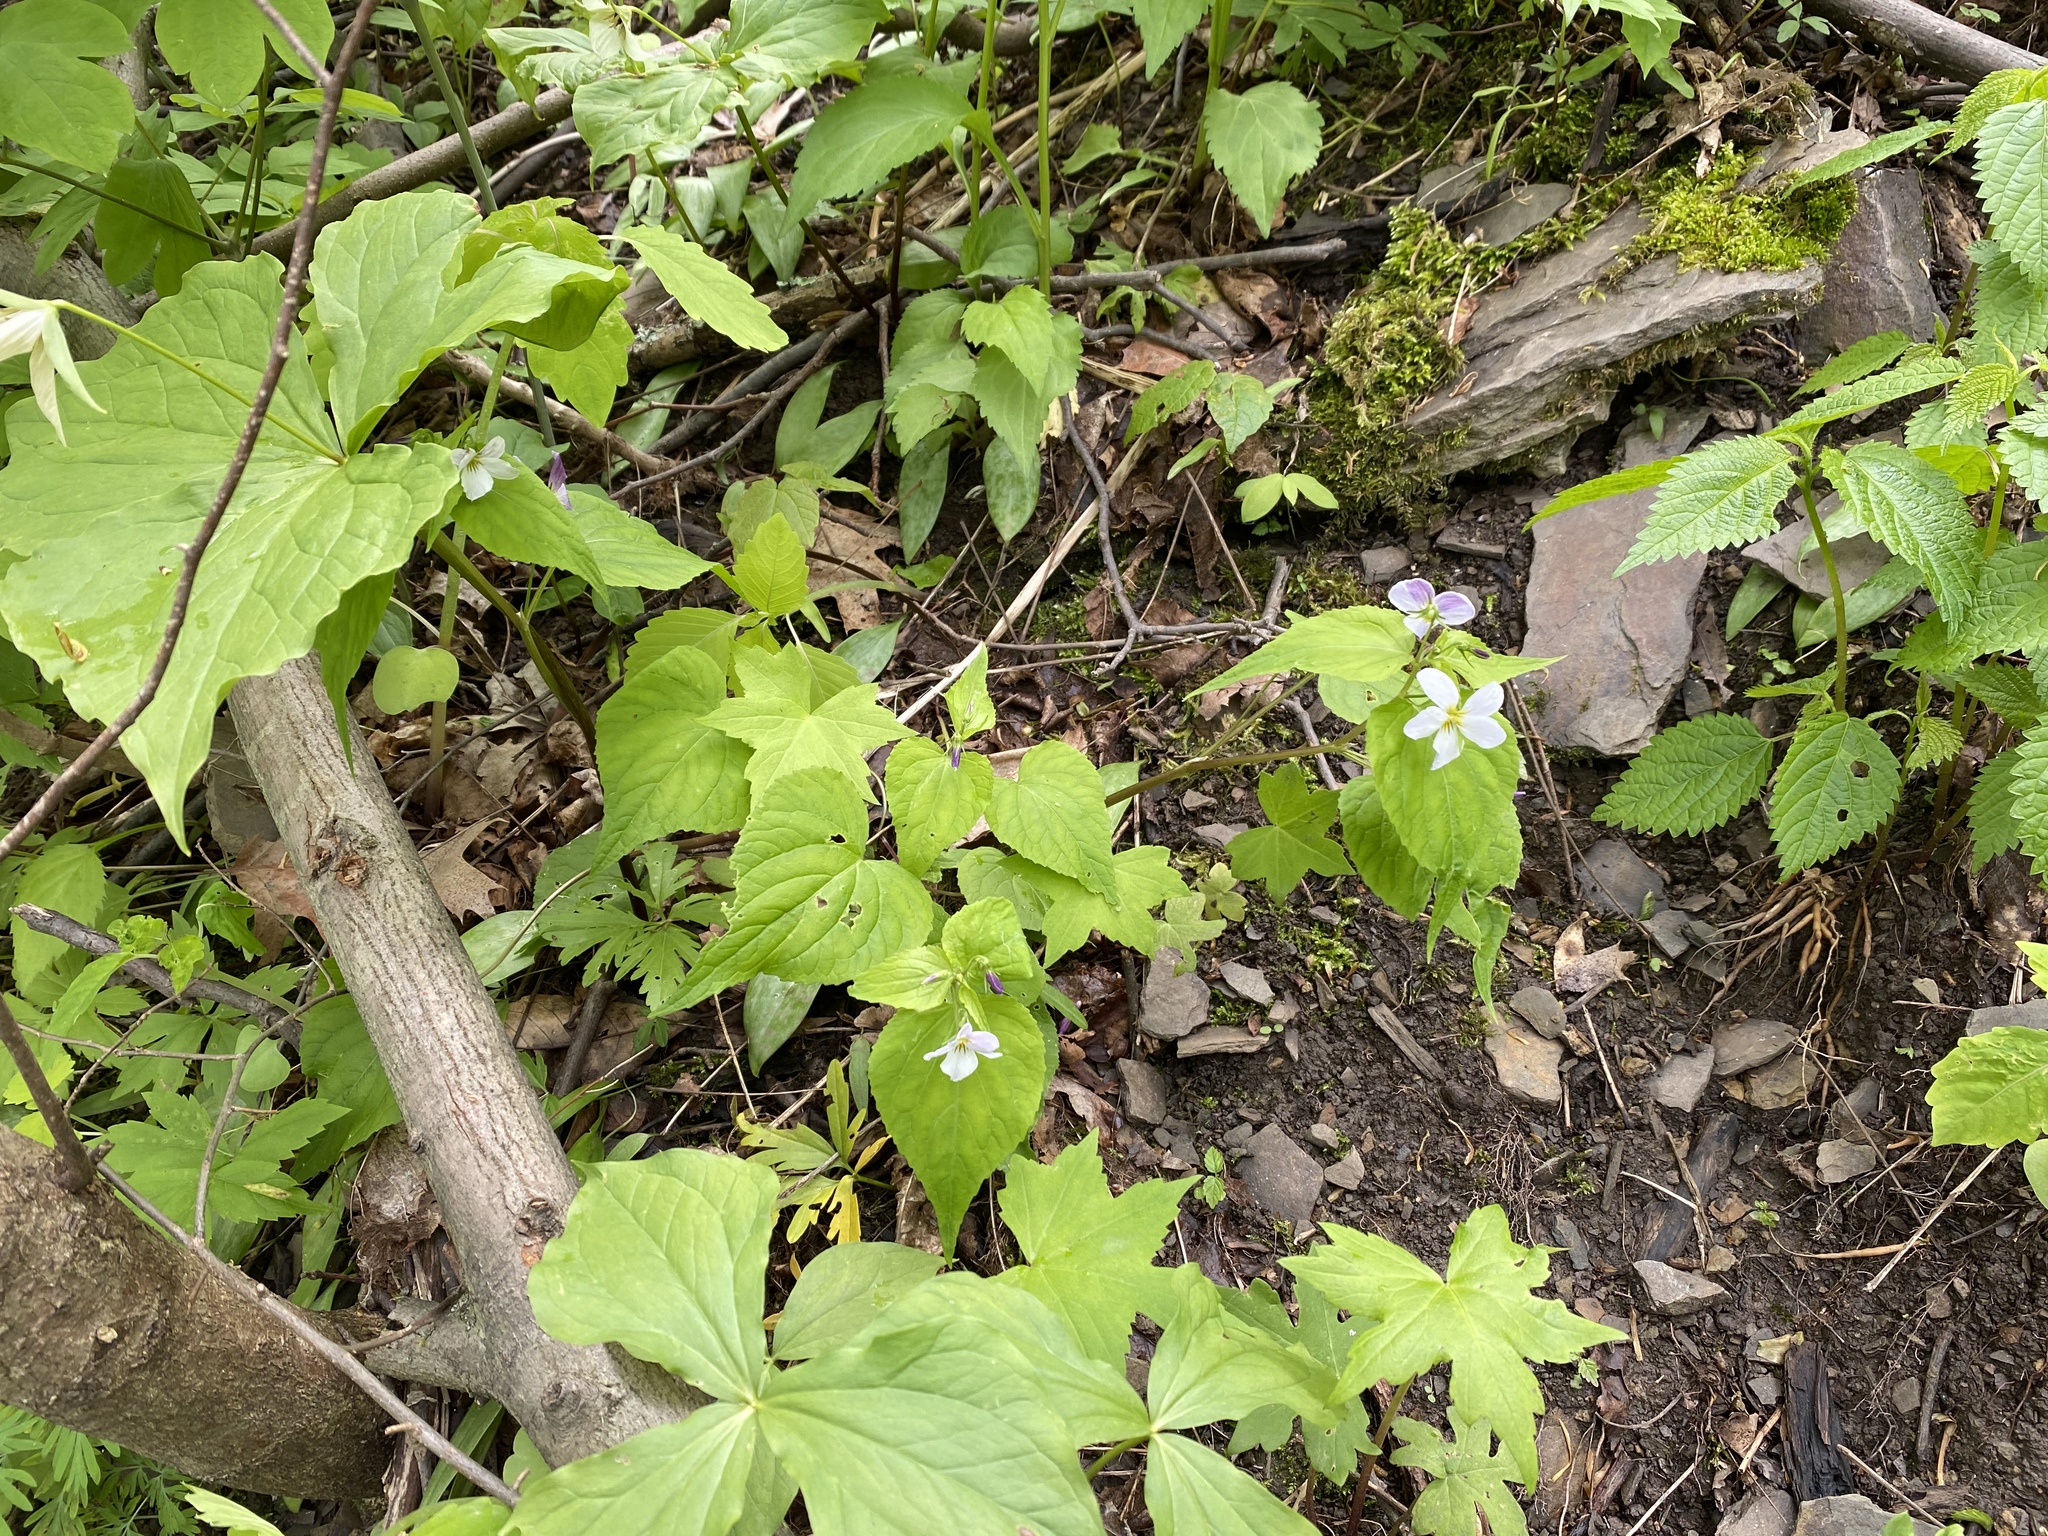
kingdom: Plantae
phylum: Tracheophyta
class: Magnoliopsida
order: Malpighiales
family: Violaceae
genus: Viola
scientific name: Viola canadensis
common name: Canada violet
